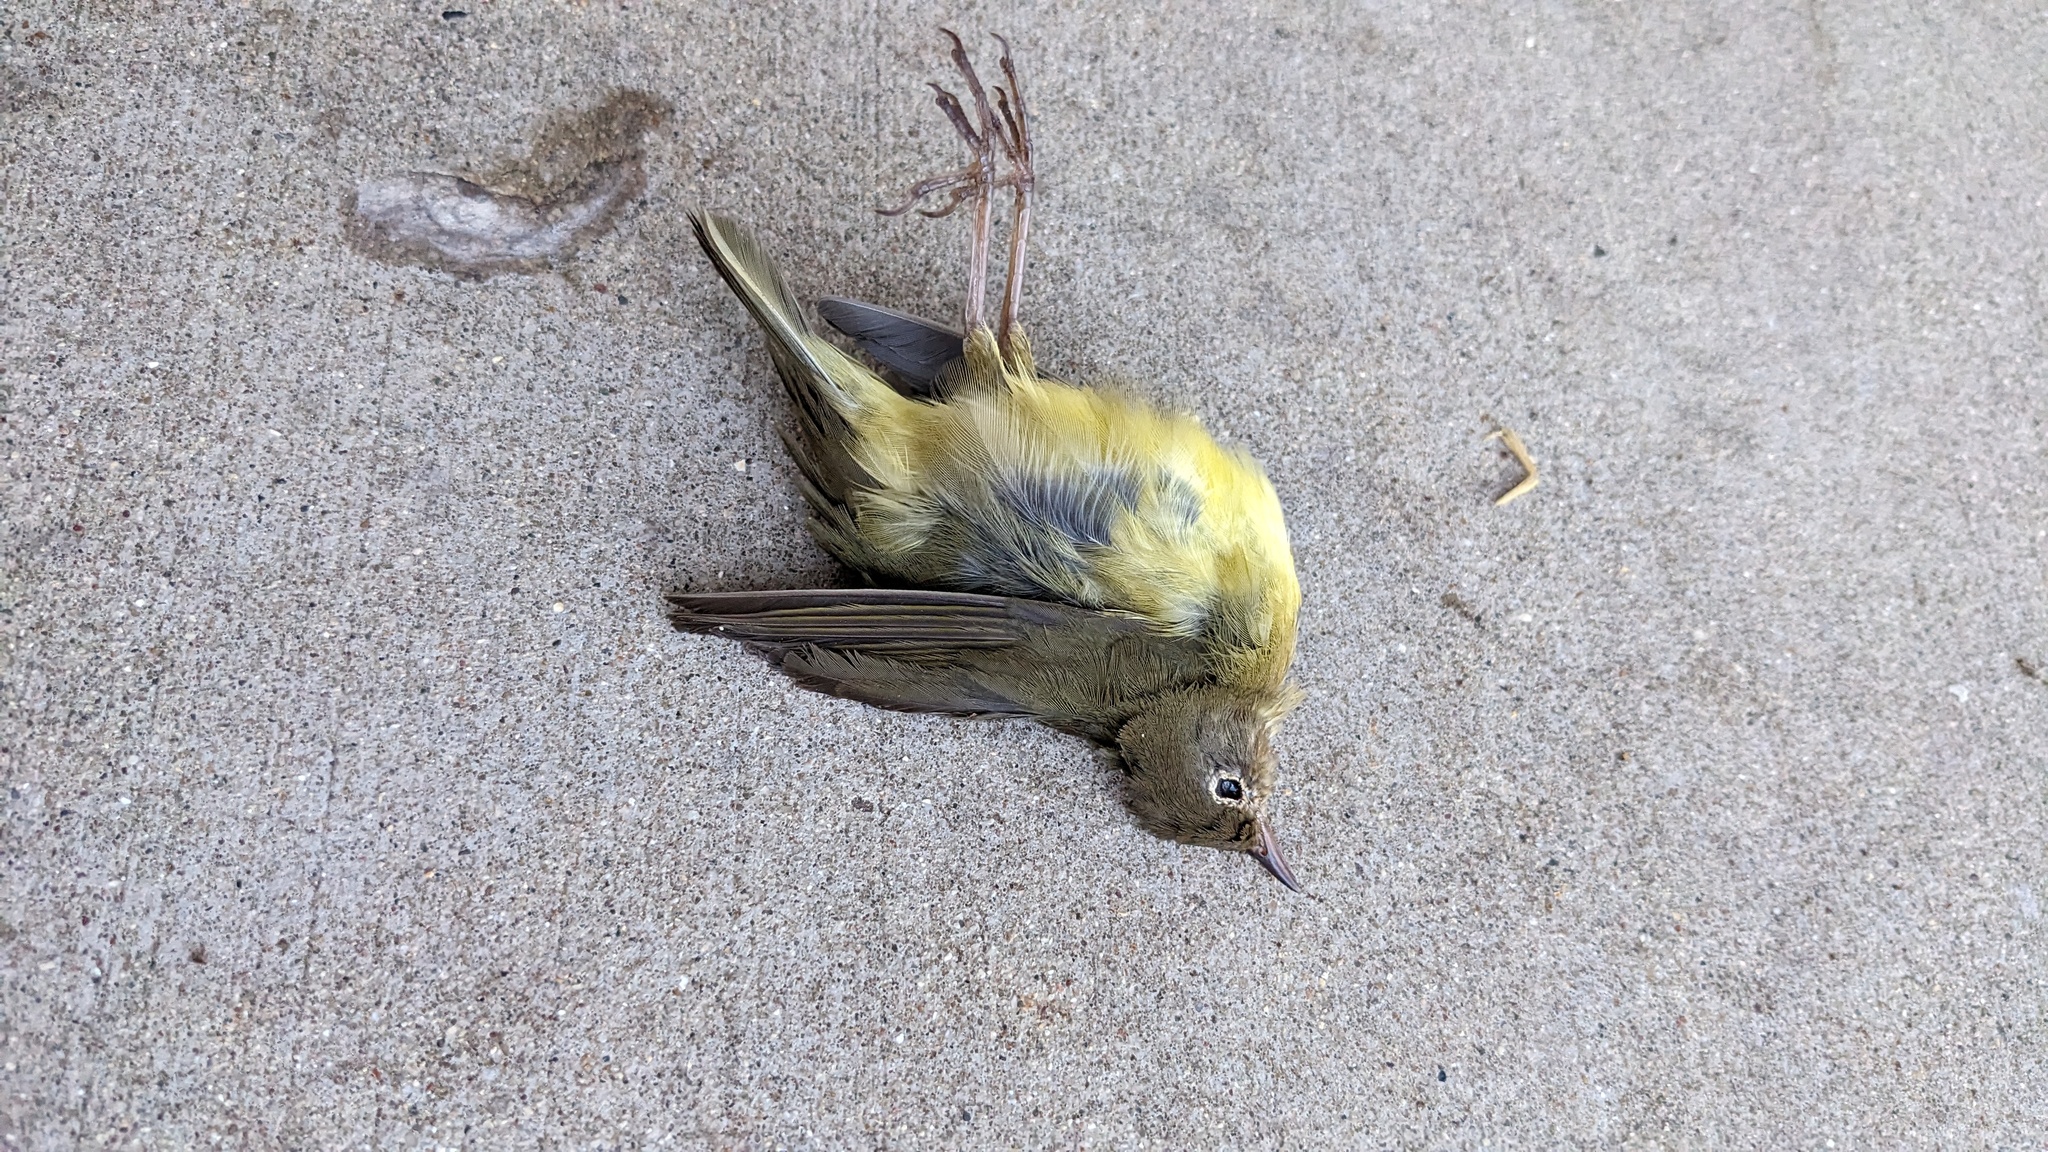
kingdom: Animalia
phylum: Chordata
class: Aves
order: Passeriformes
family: Parulidae
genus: Oporornis
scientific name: Oporornis agilis
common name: Connecticut warbler
